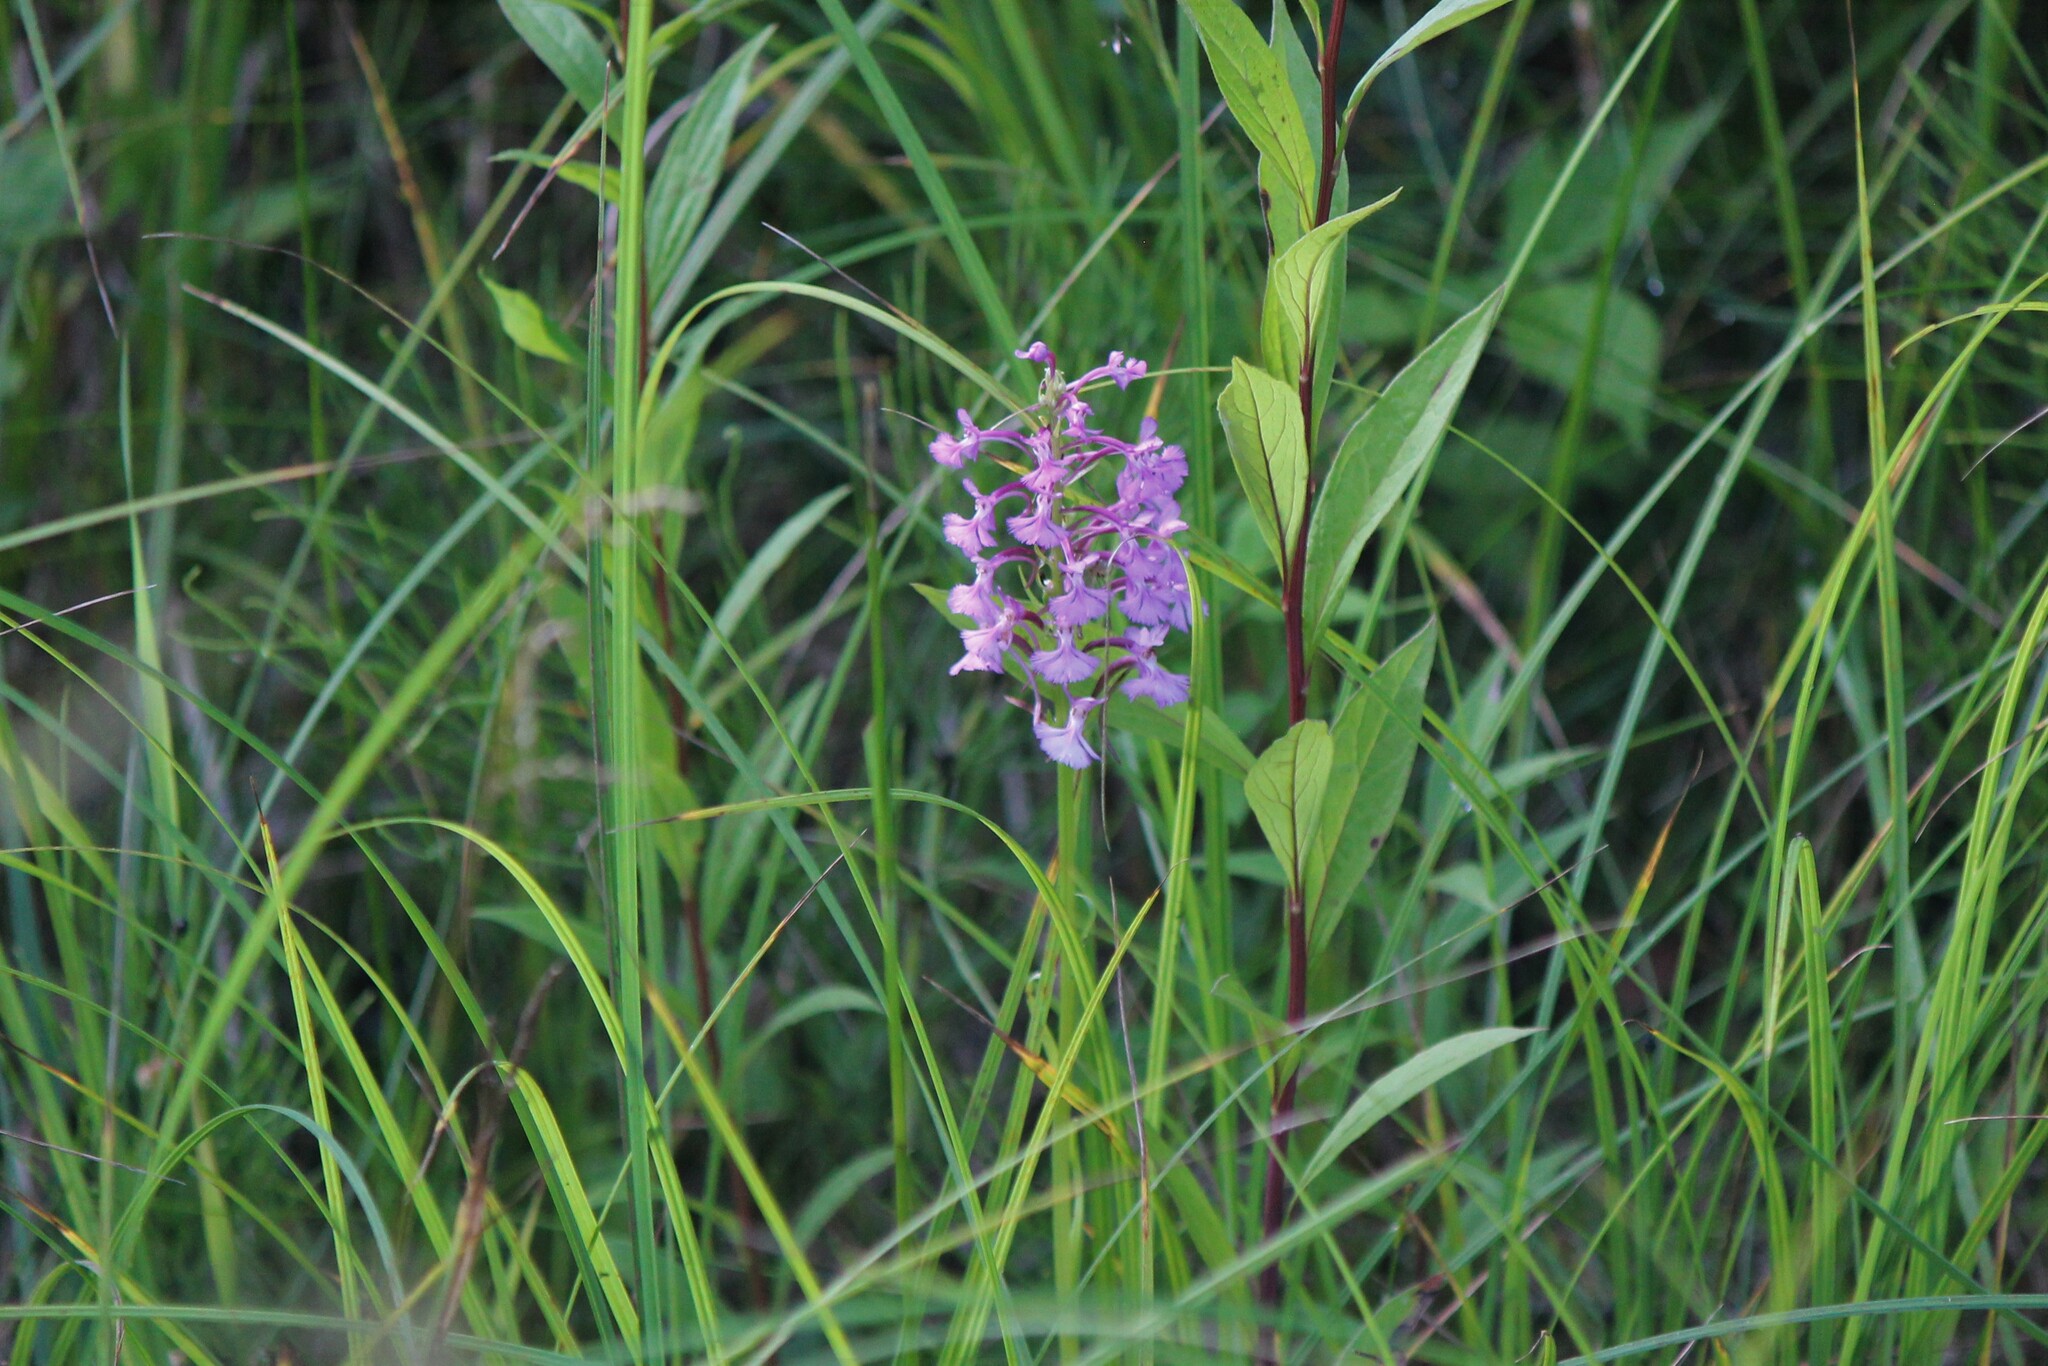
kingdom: Plantae
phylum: Tracheophyta
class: Liliopsida
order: Asparagales
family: Orchidaceae
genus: Platanthera
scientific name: Platanthera psycodes
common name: Lesser purple fringed orchid
